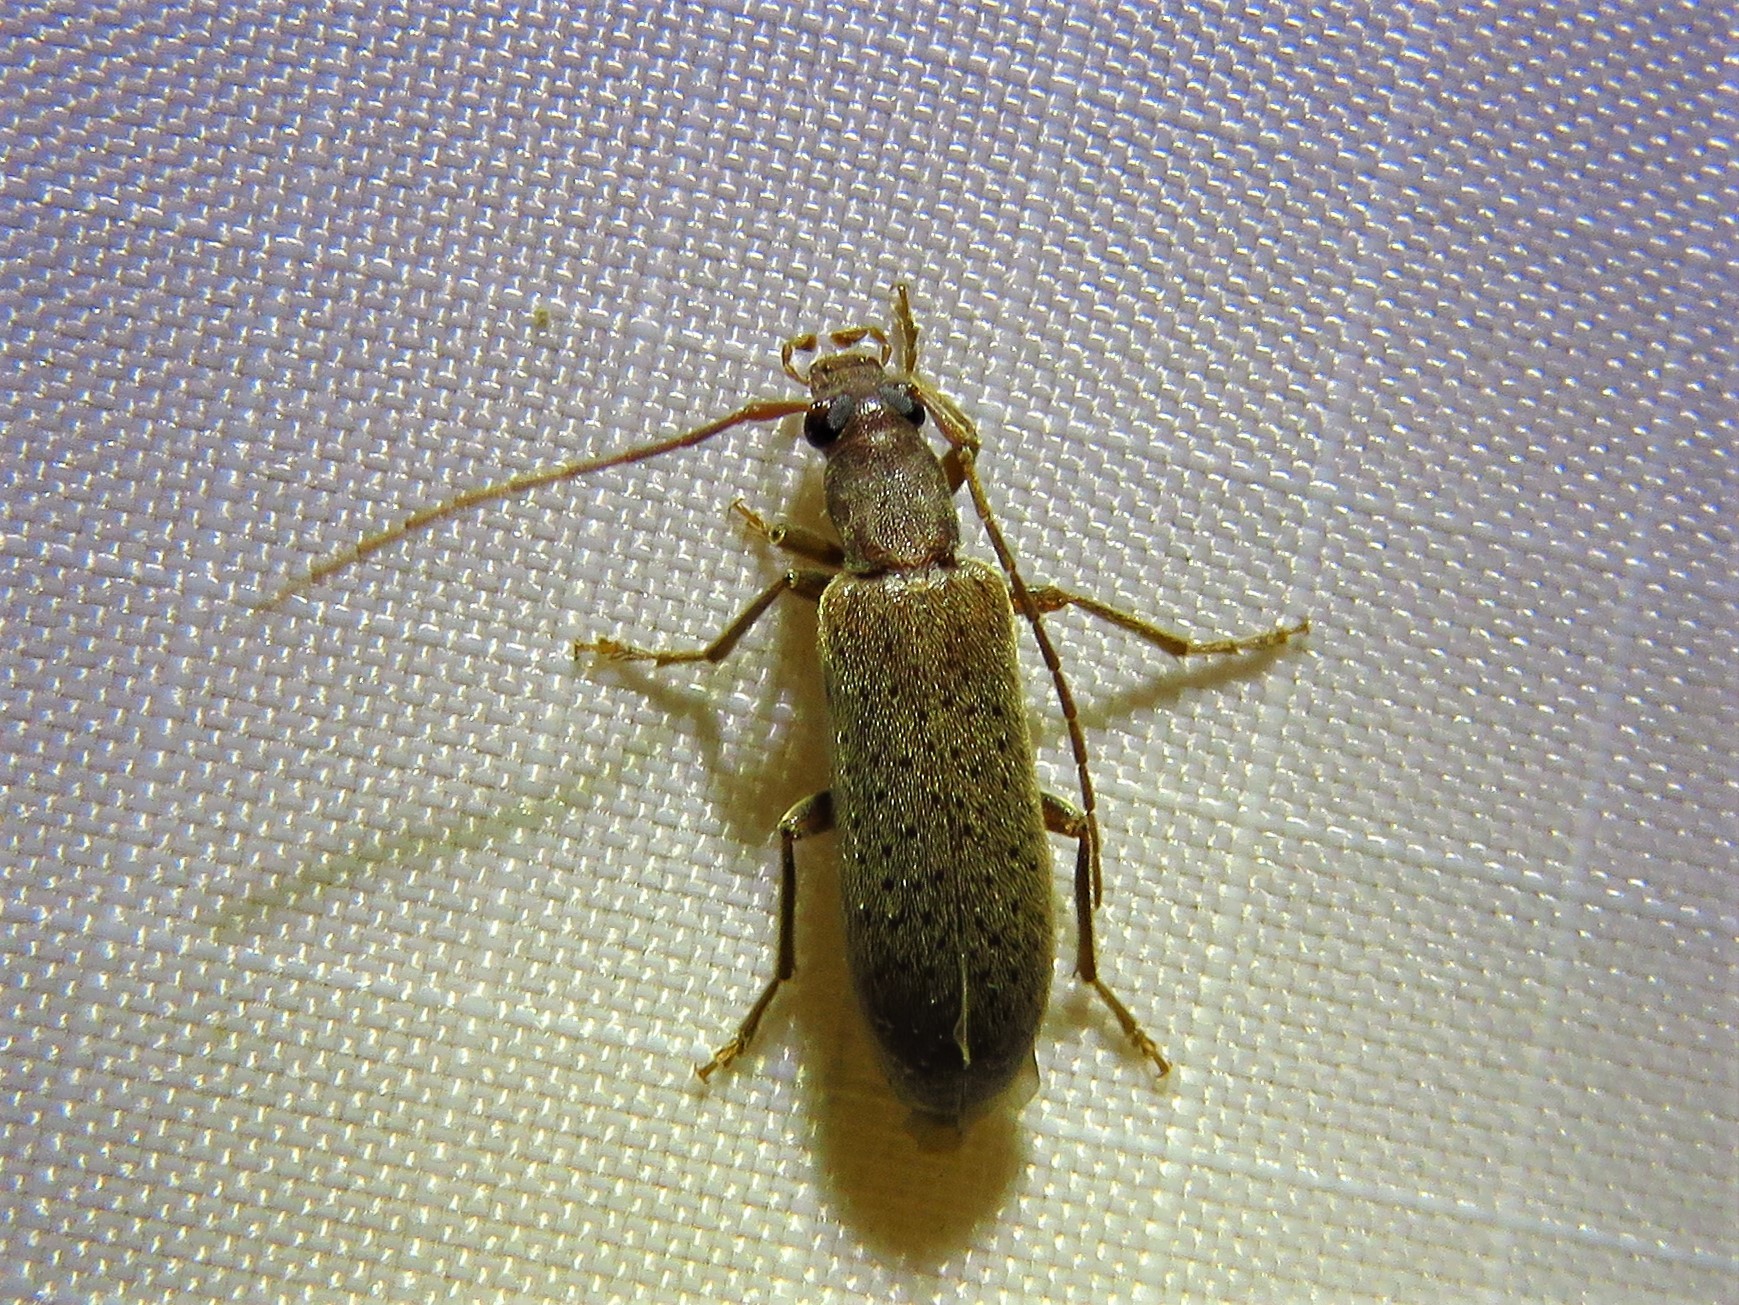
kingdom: Animalia
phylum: Arthropoda
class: Insecta
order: Coleoptera
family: Oedemeridae
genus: Sparedrus
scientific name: Sparedrus aspersus
